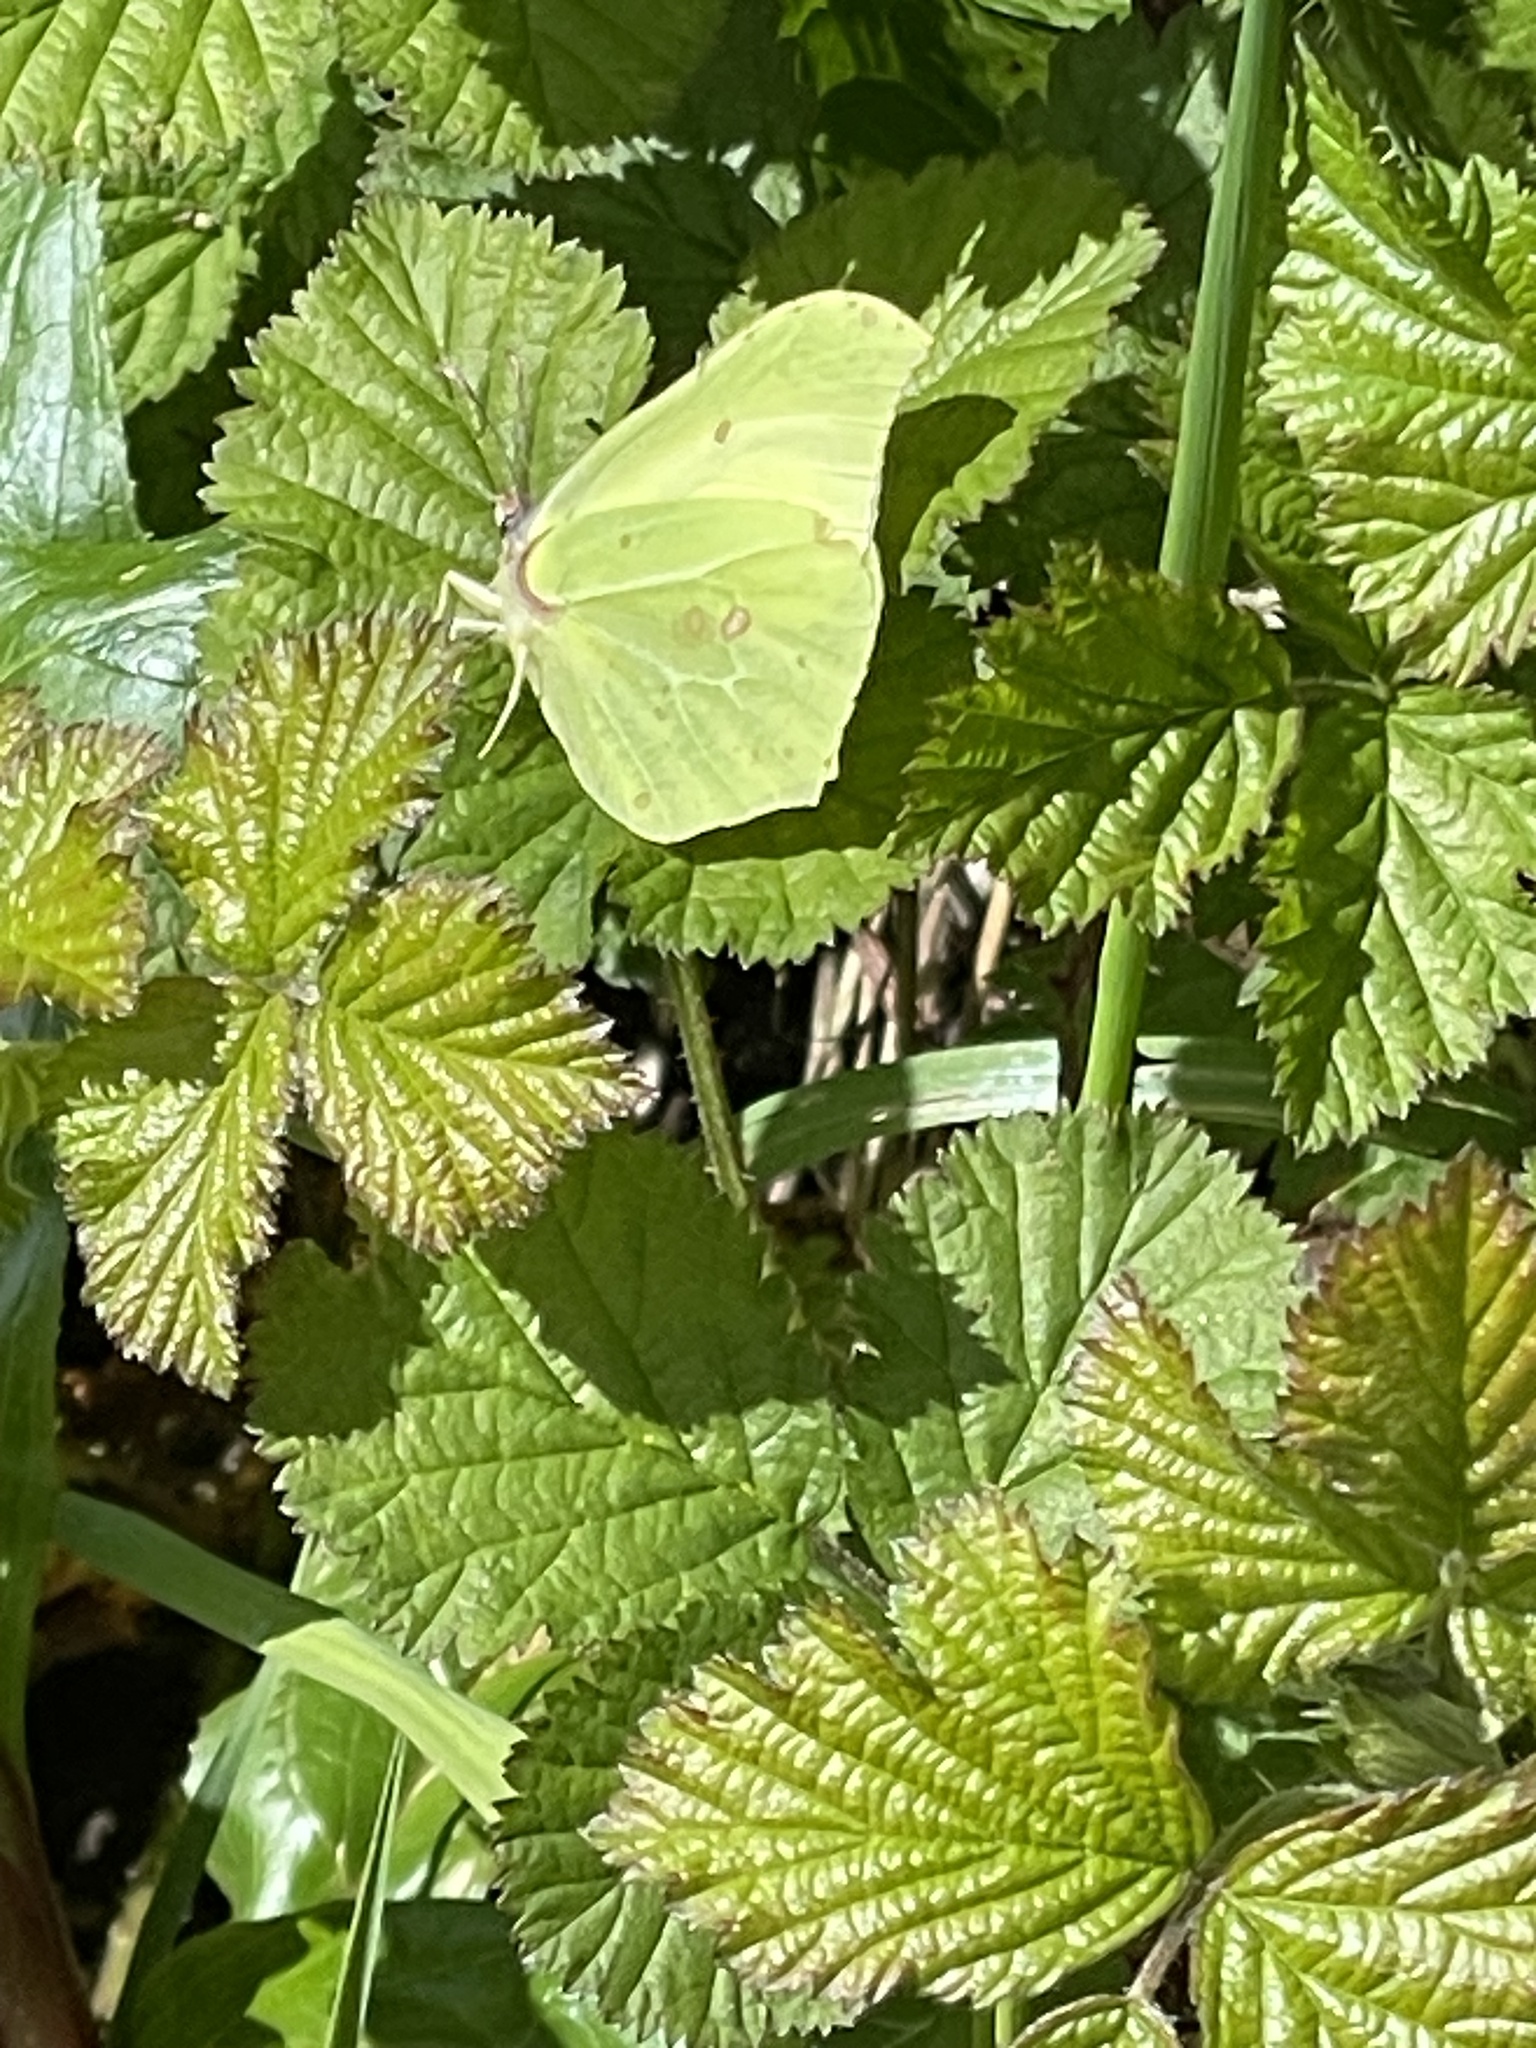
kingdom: Animalia
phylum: Arthropoda
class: Insecta
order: Lepidoptera
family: Pieridae
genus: Gonepteryx
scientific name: Gonepteryx rhamni
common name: Brimstone
